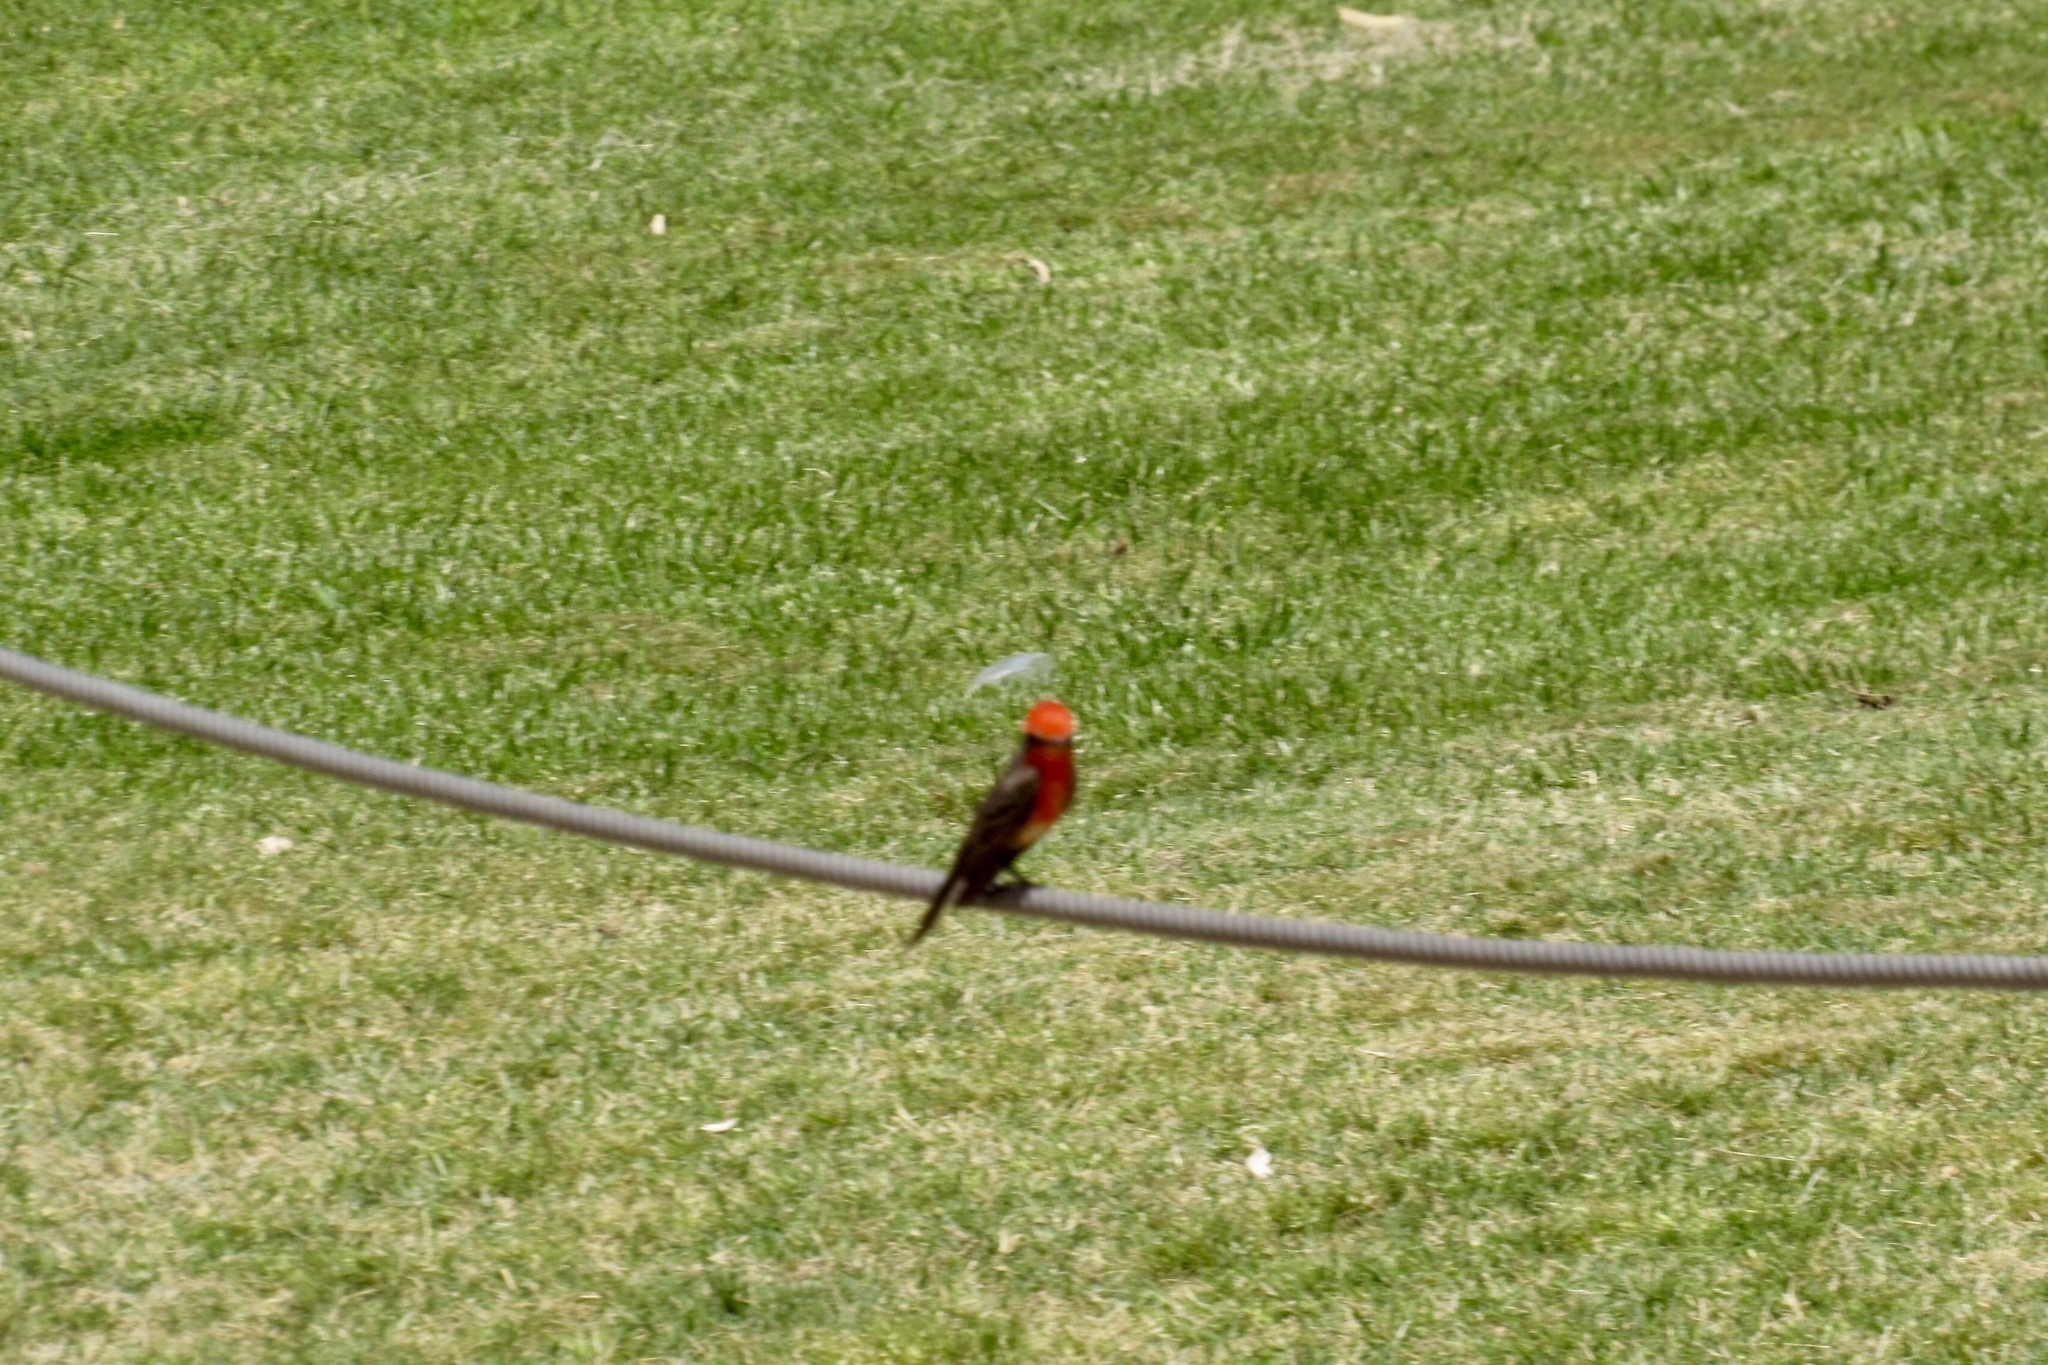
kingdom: Animalia
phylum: Chordata
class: Aves
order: Passeriformes
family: Tyrannidae
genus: Pyrocephalus
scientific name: Pyrocephalus rubinus
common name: Vermilion flycatcher
